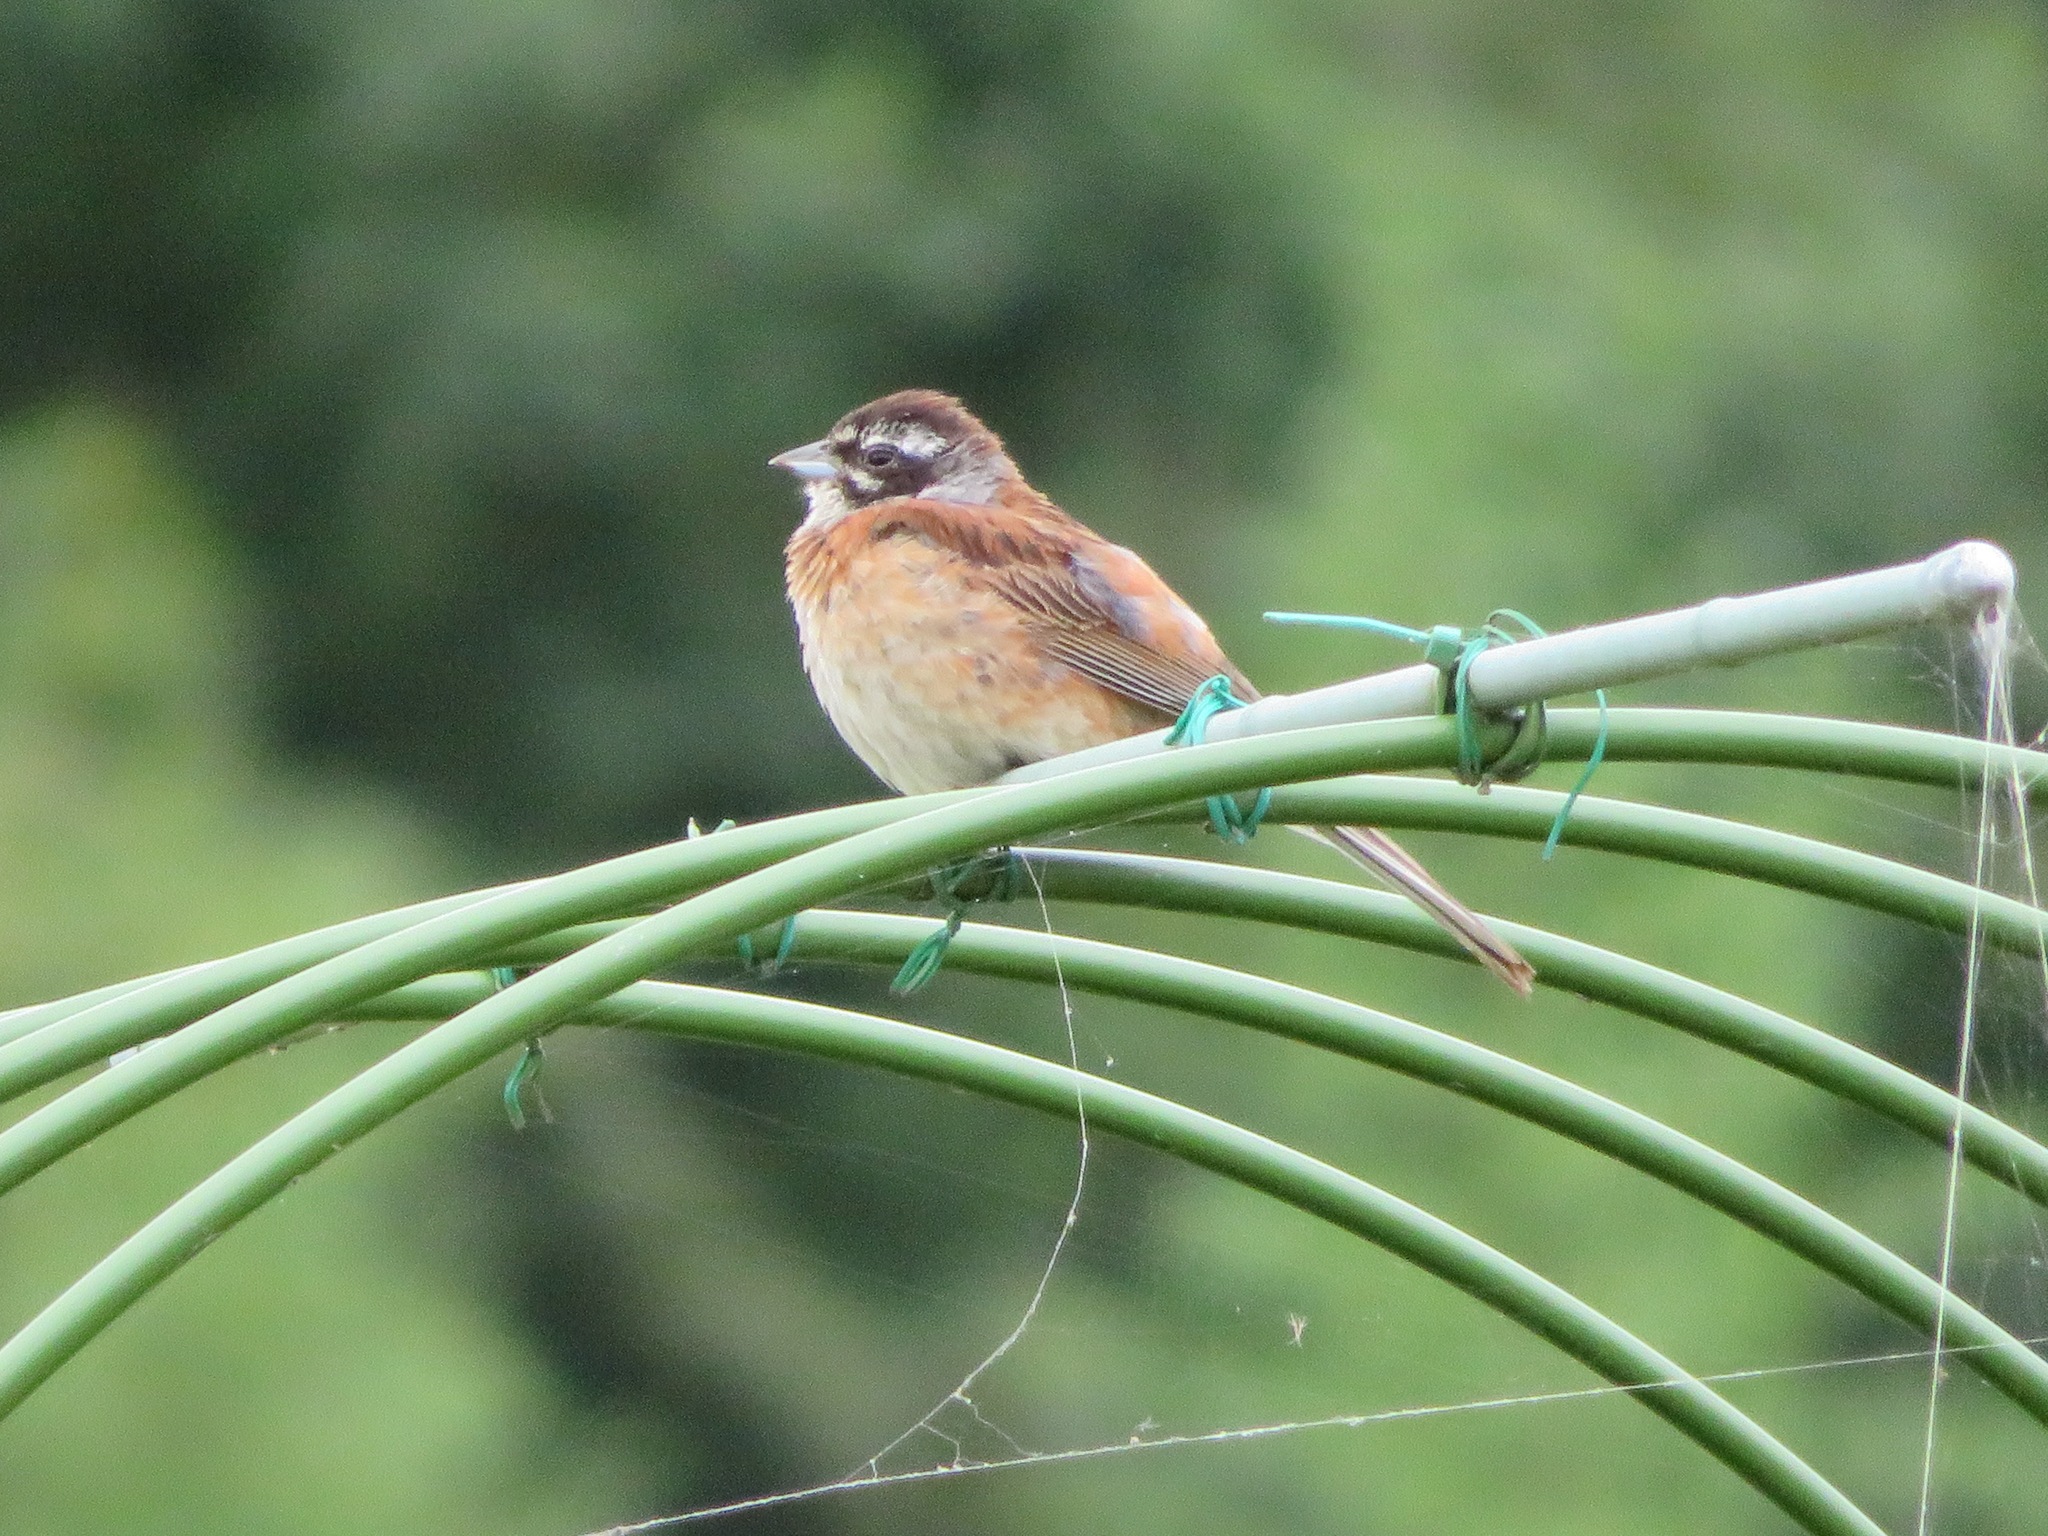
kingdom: Animalia
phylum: Chordata
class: Aves
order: Passeriformes
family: Emberizidae
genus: Emberiza
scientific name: Emberiza cioides
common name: Meadow bunting
